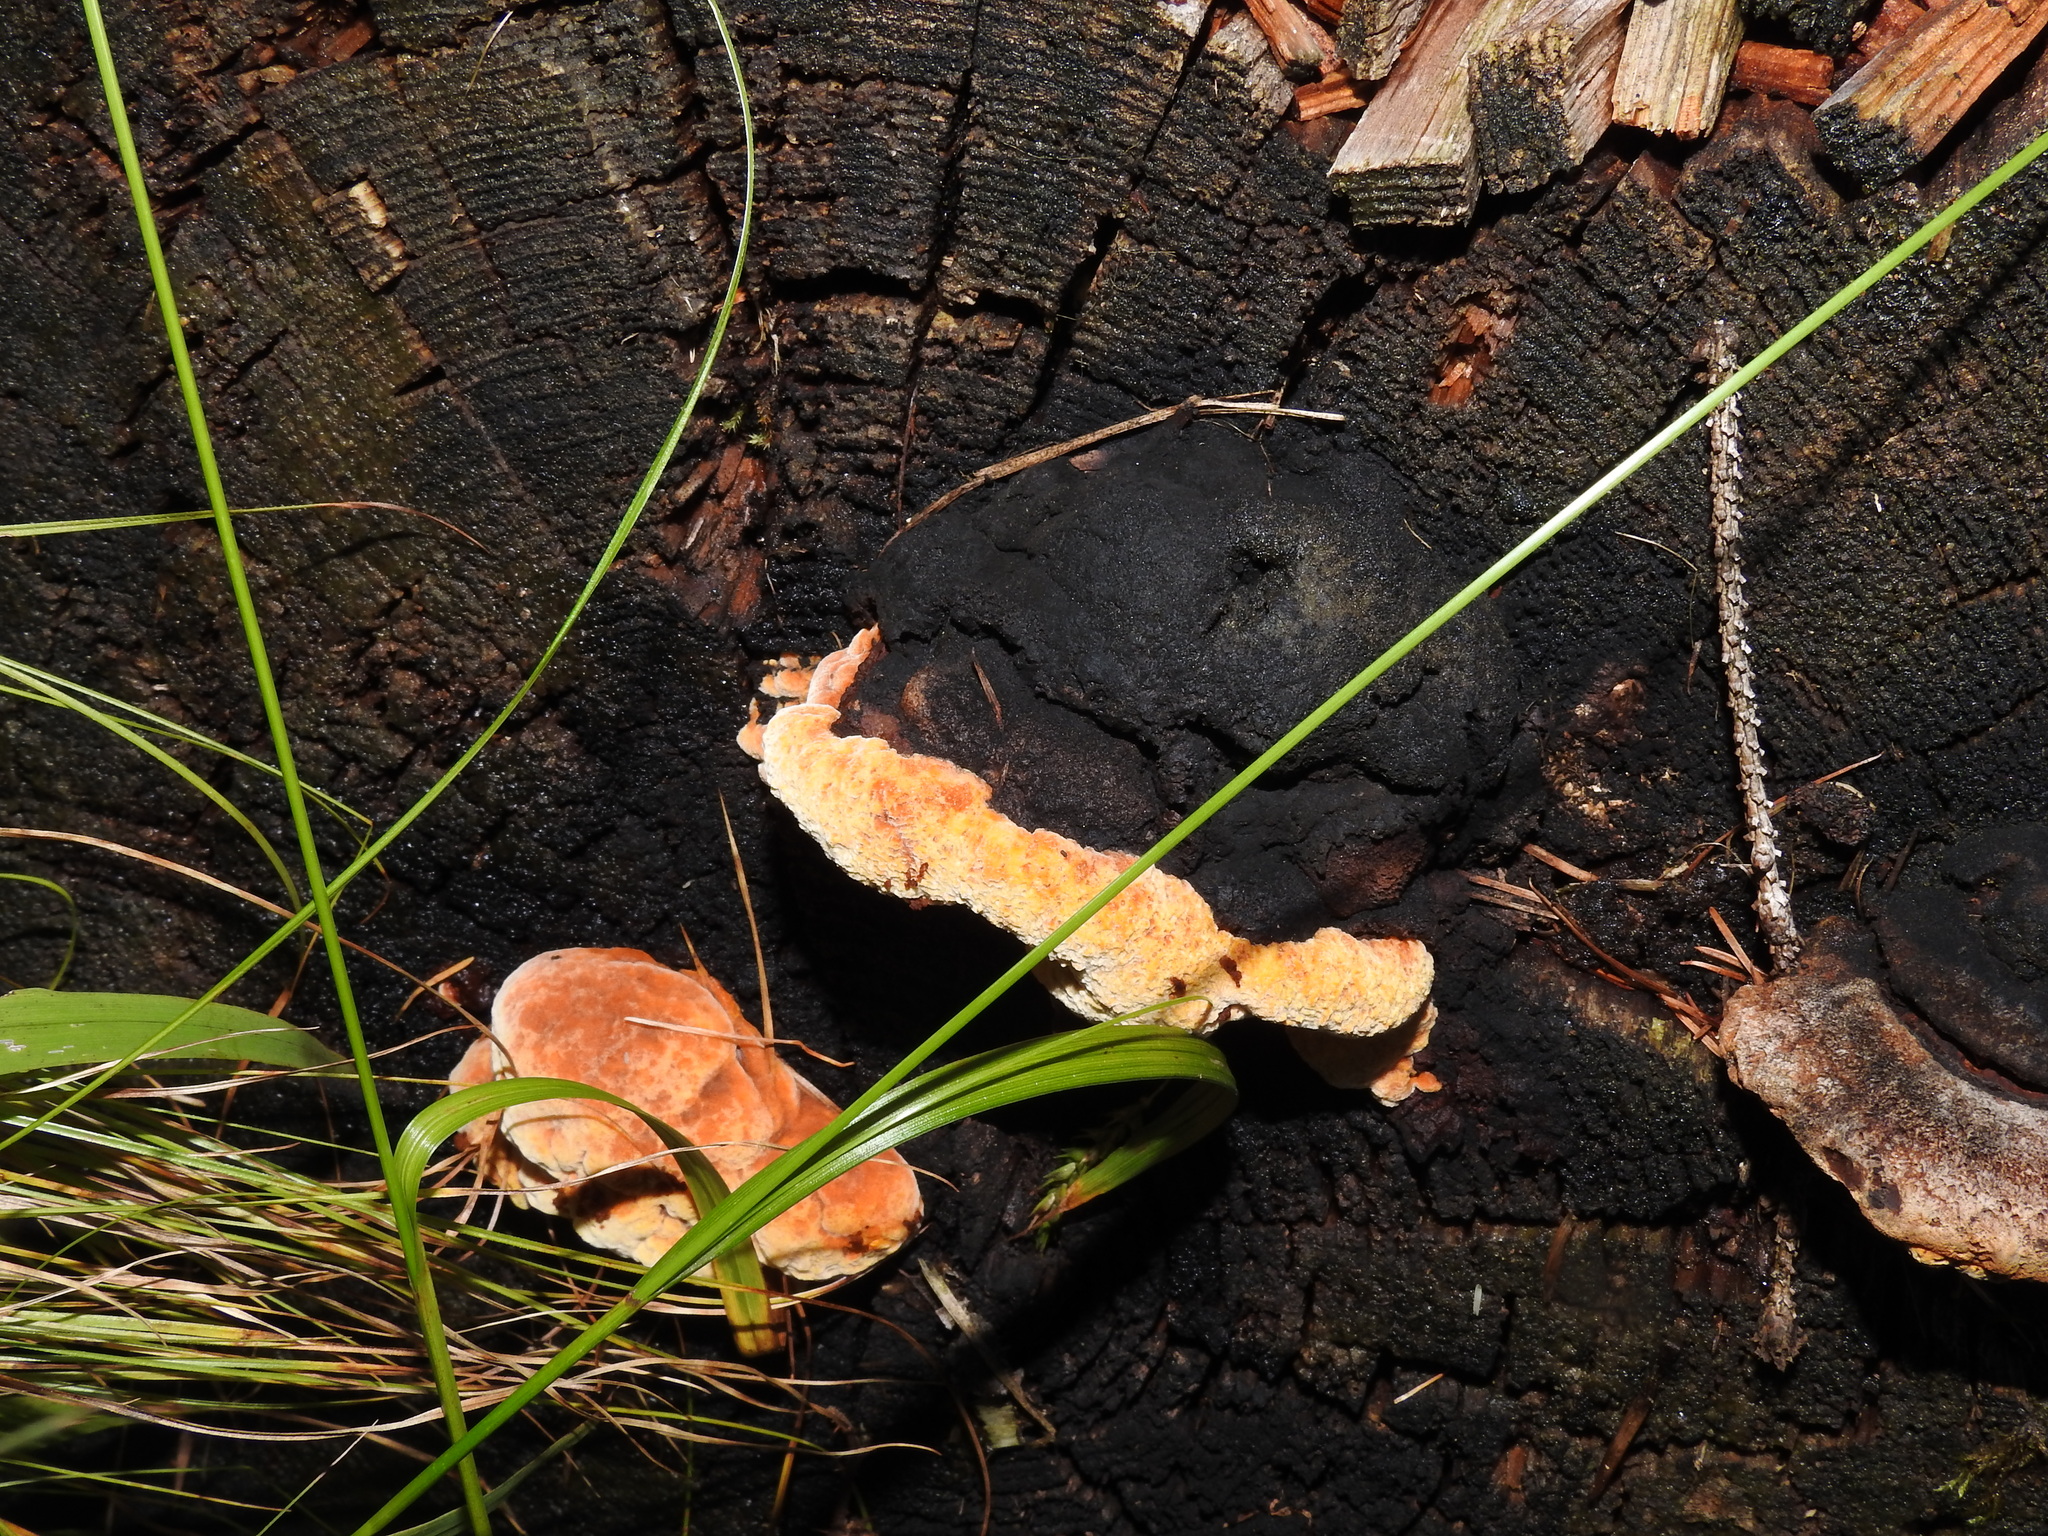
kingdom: Fungi
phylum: Basidiomycota
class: Agaricomycetes
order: Gloeophyllales
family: Gloeophyllaceae
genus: Gloeophyllum
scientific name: Gloeophyllum odoratum
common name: Anise mazegill
